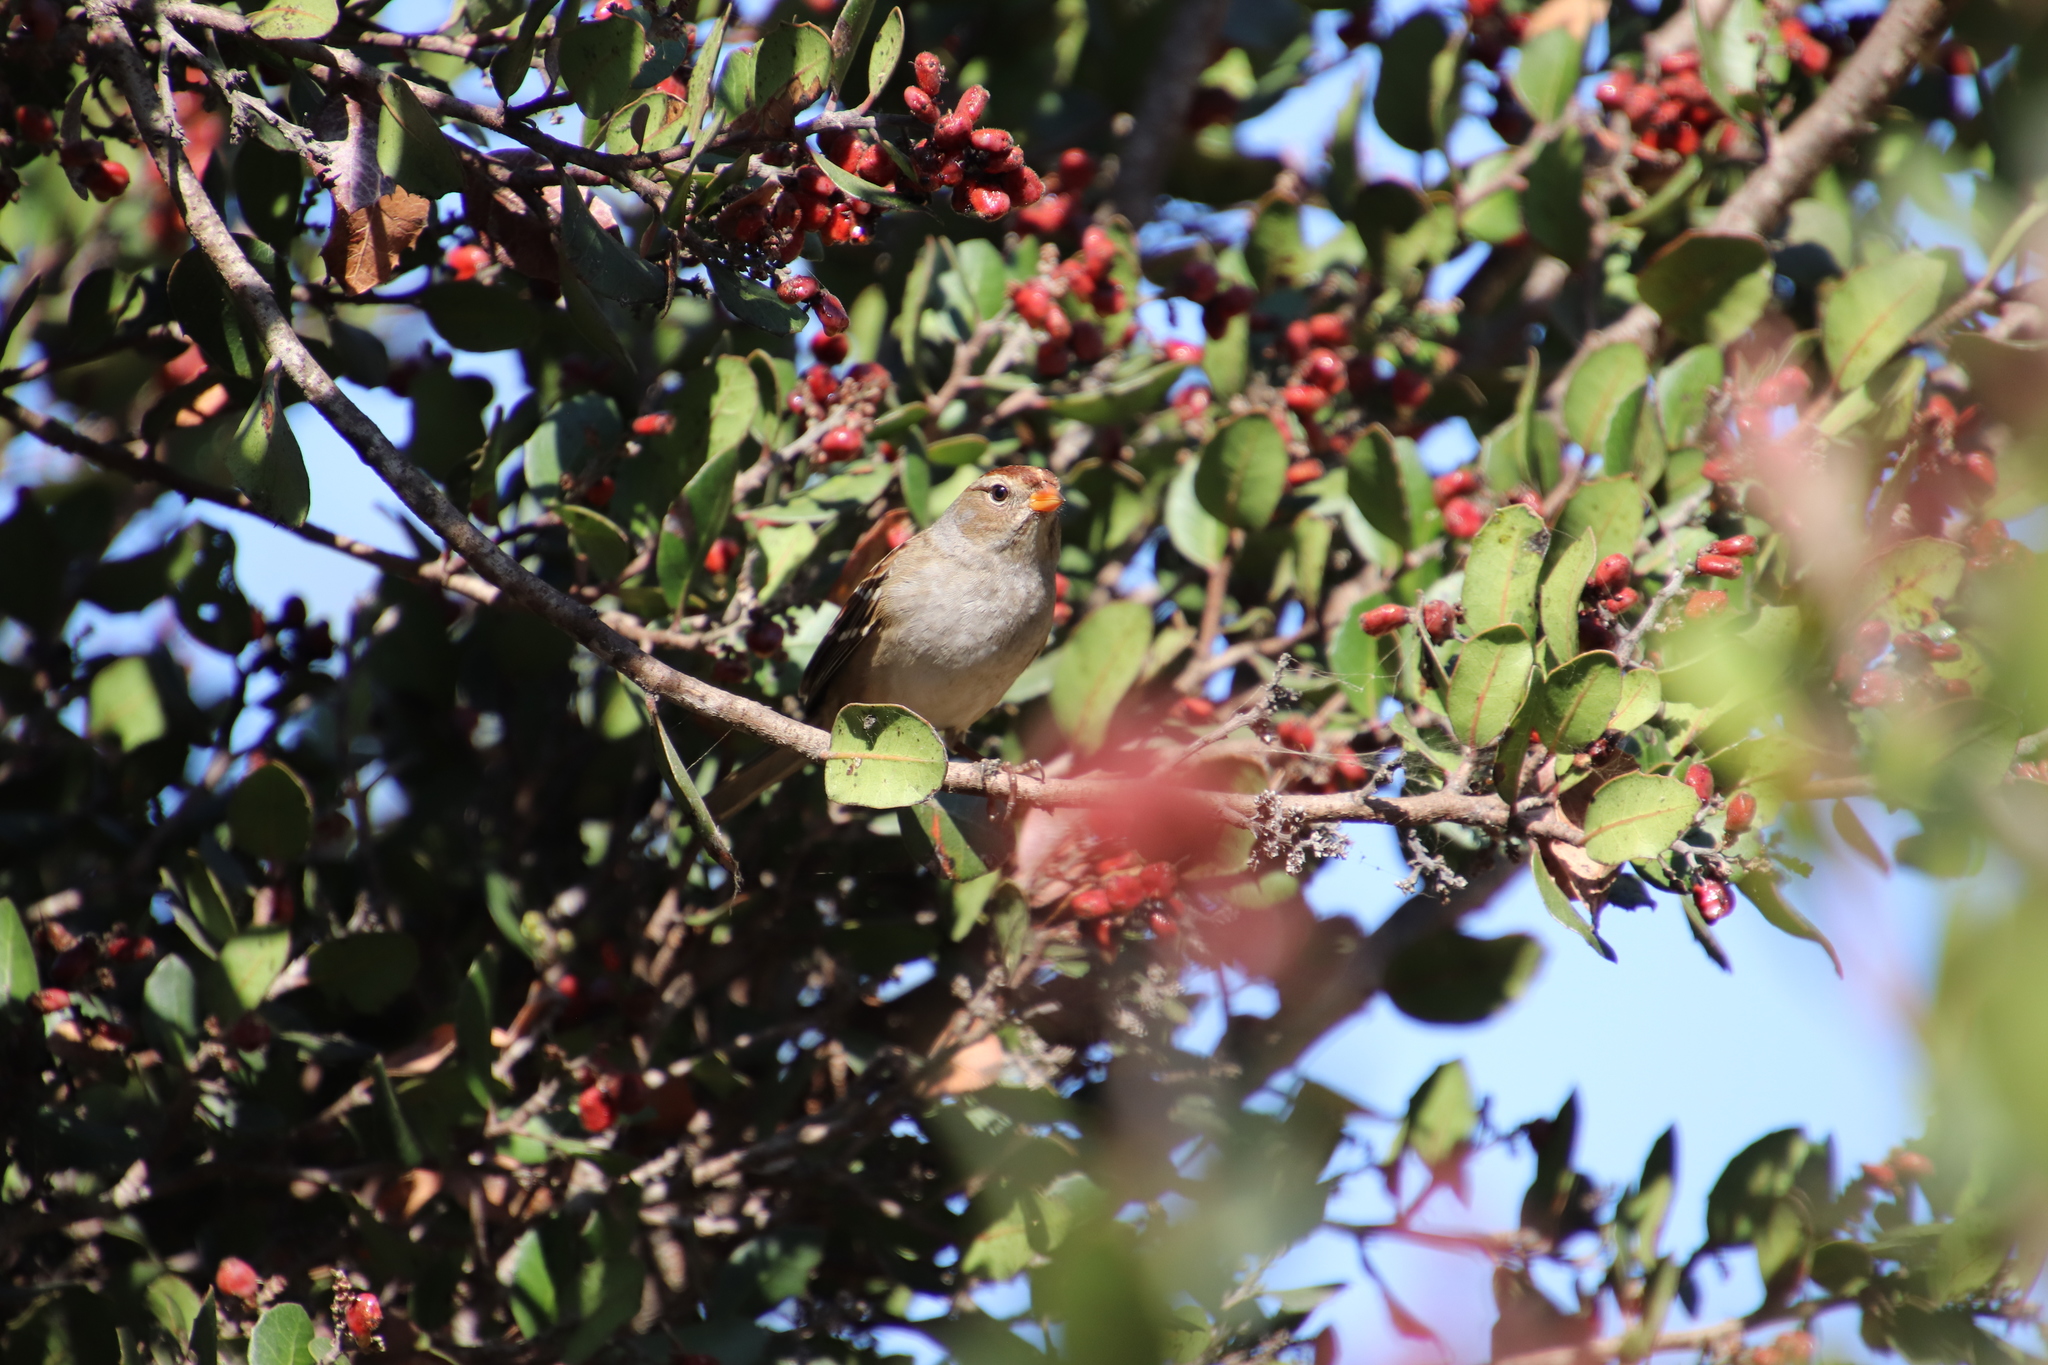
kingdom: Animalia
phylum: Chordata
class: Aves
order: Passeriformes
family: Passerellidae
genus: Zonotrichia
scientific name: Zonotrichia leucophrys
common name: White-crowned sparrow
